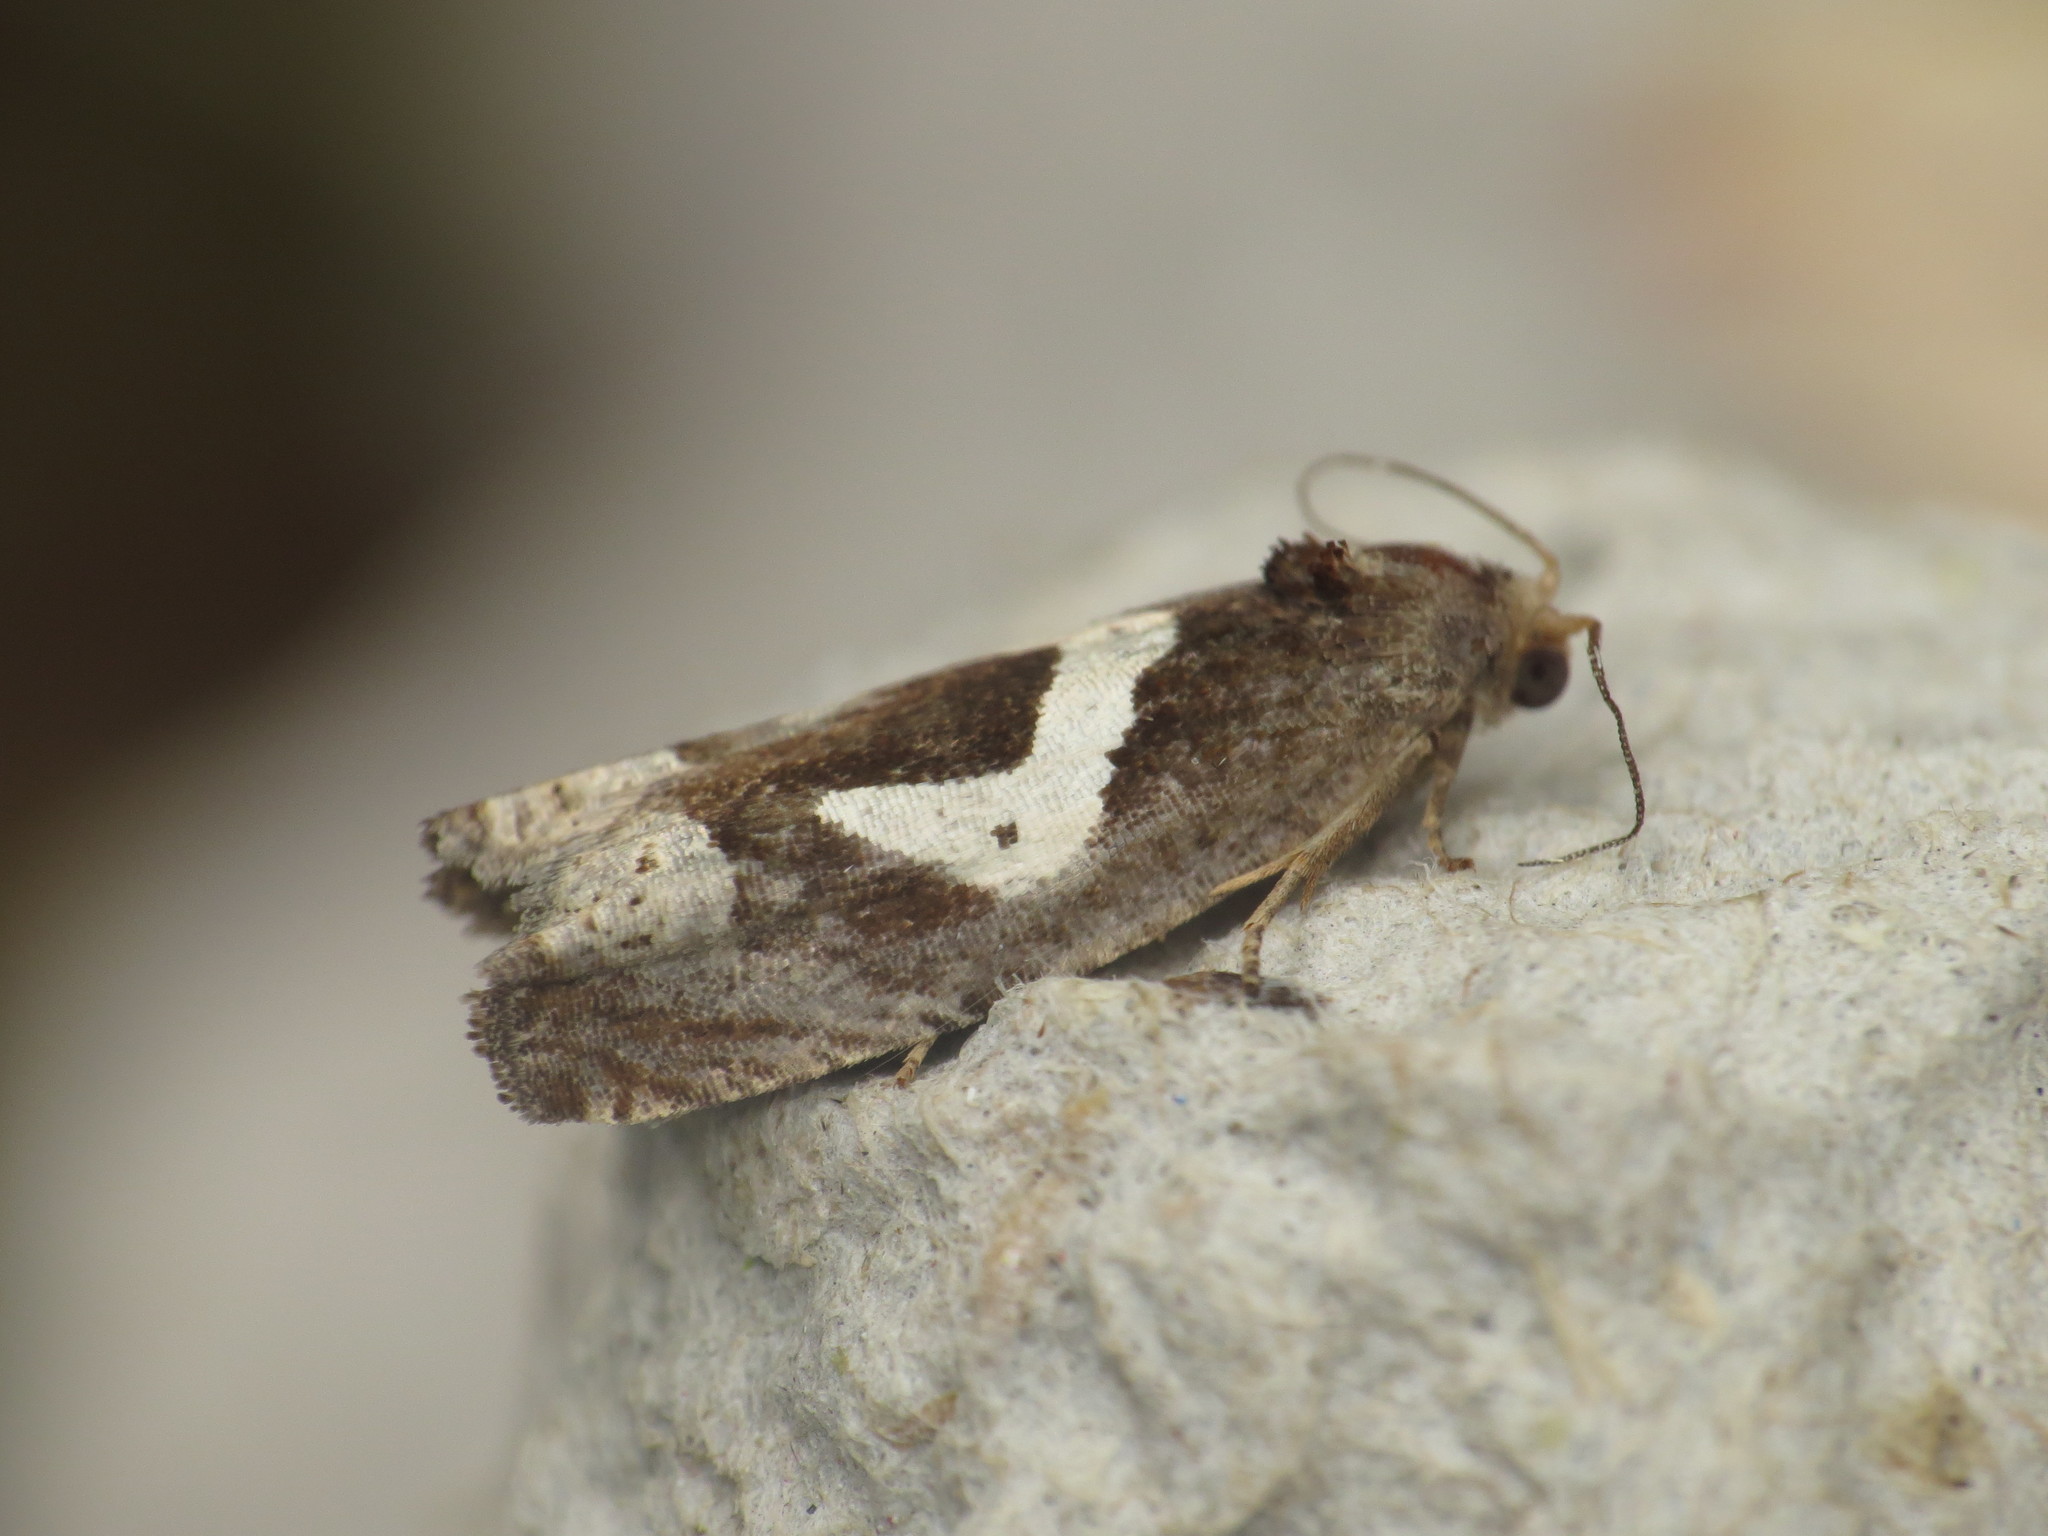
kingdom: Animalia
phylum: Arthropoda
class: Insecta
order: Lepidoptera
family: Tortricidae
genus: Epiblema
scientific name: Epiblema foenella
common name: White-foot bell
